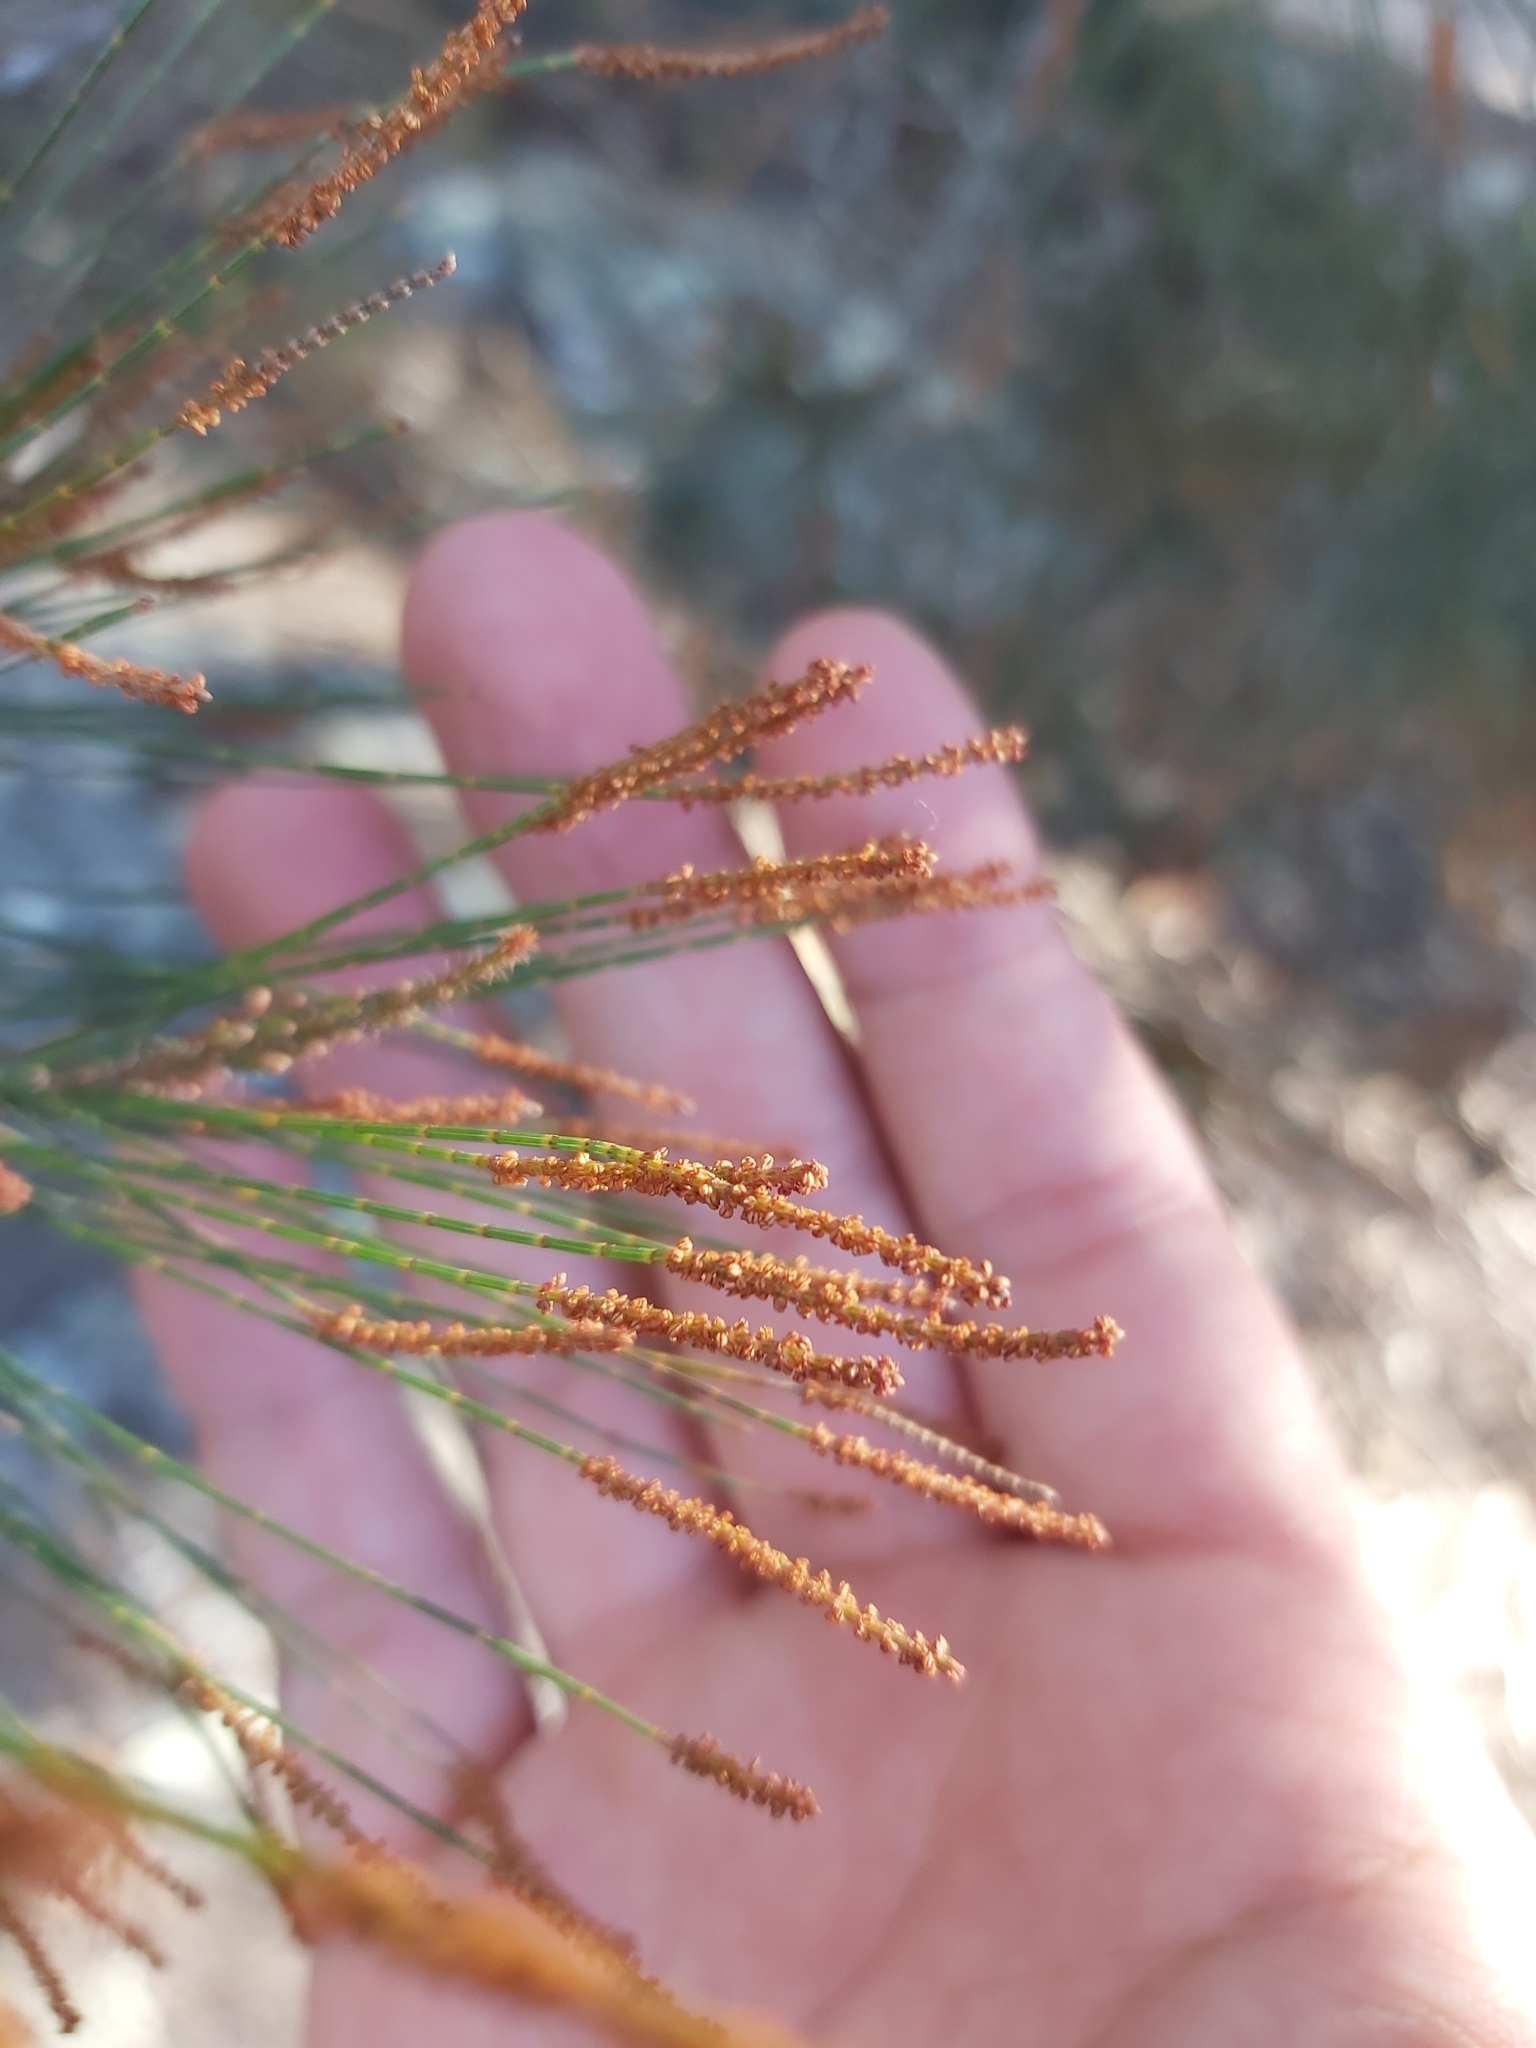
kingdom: Plantae
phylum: Tracheophyta
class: Magnoliopsida
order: Fagales
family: Casuarinaceae
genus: Allocasuarina
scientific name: Allocasuarina distyla
